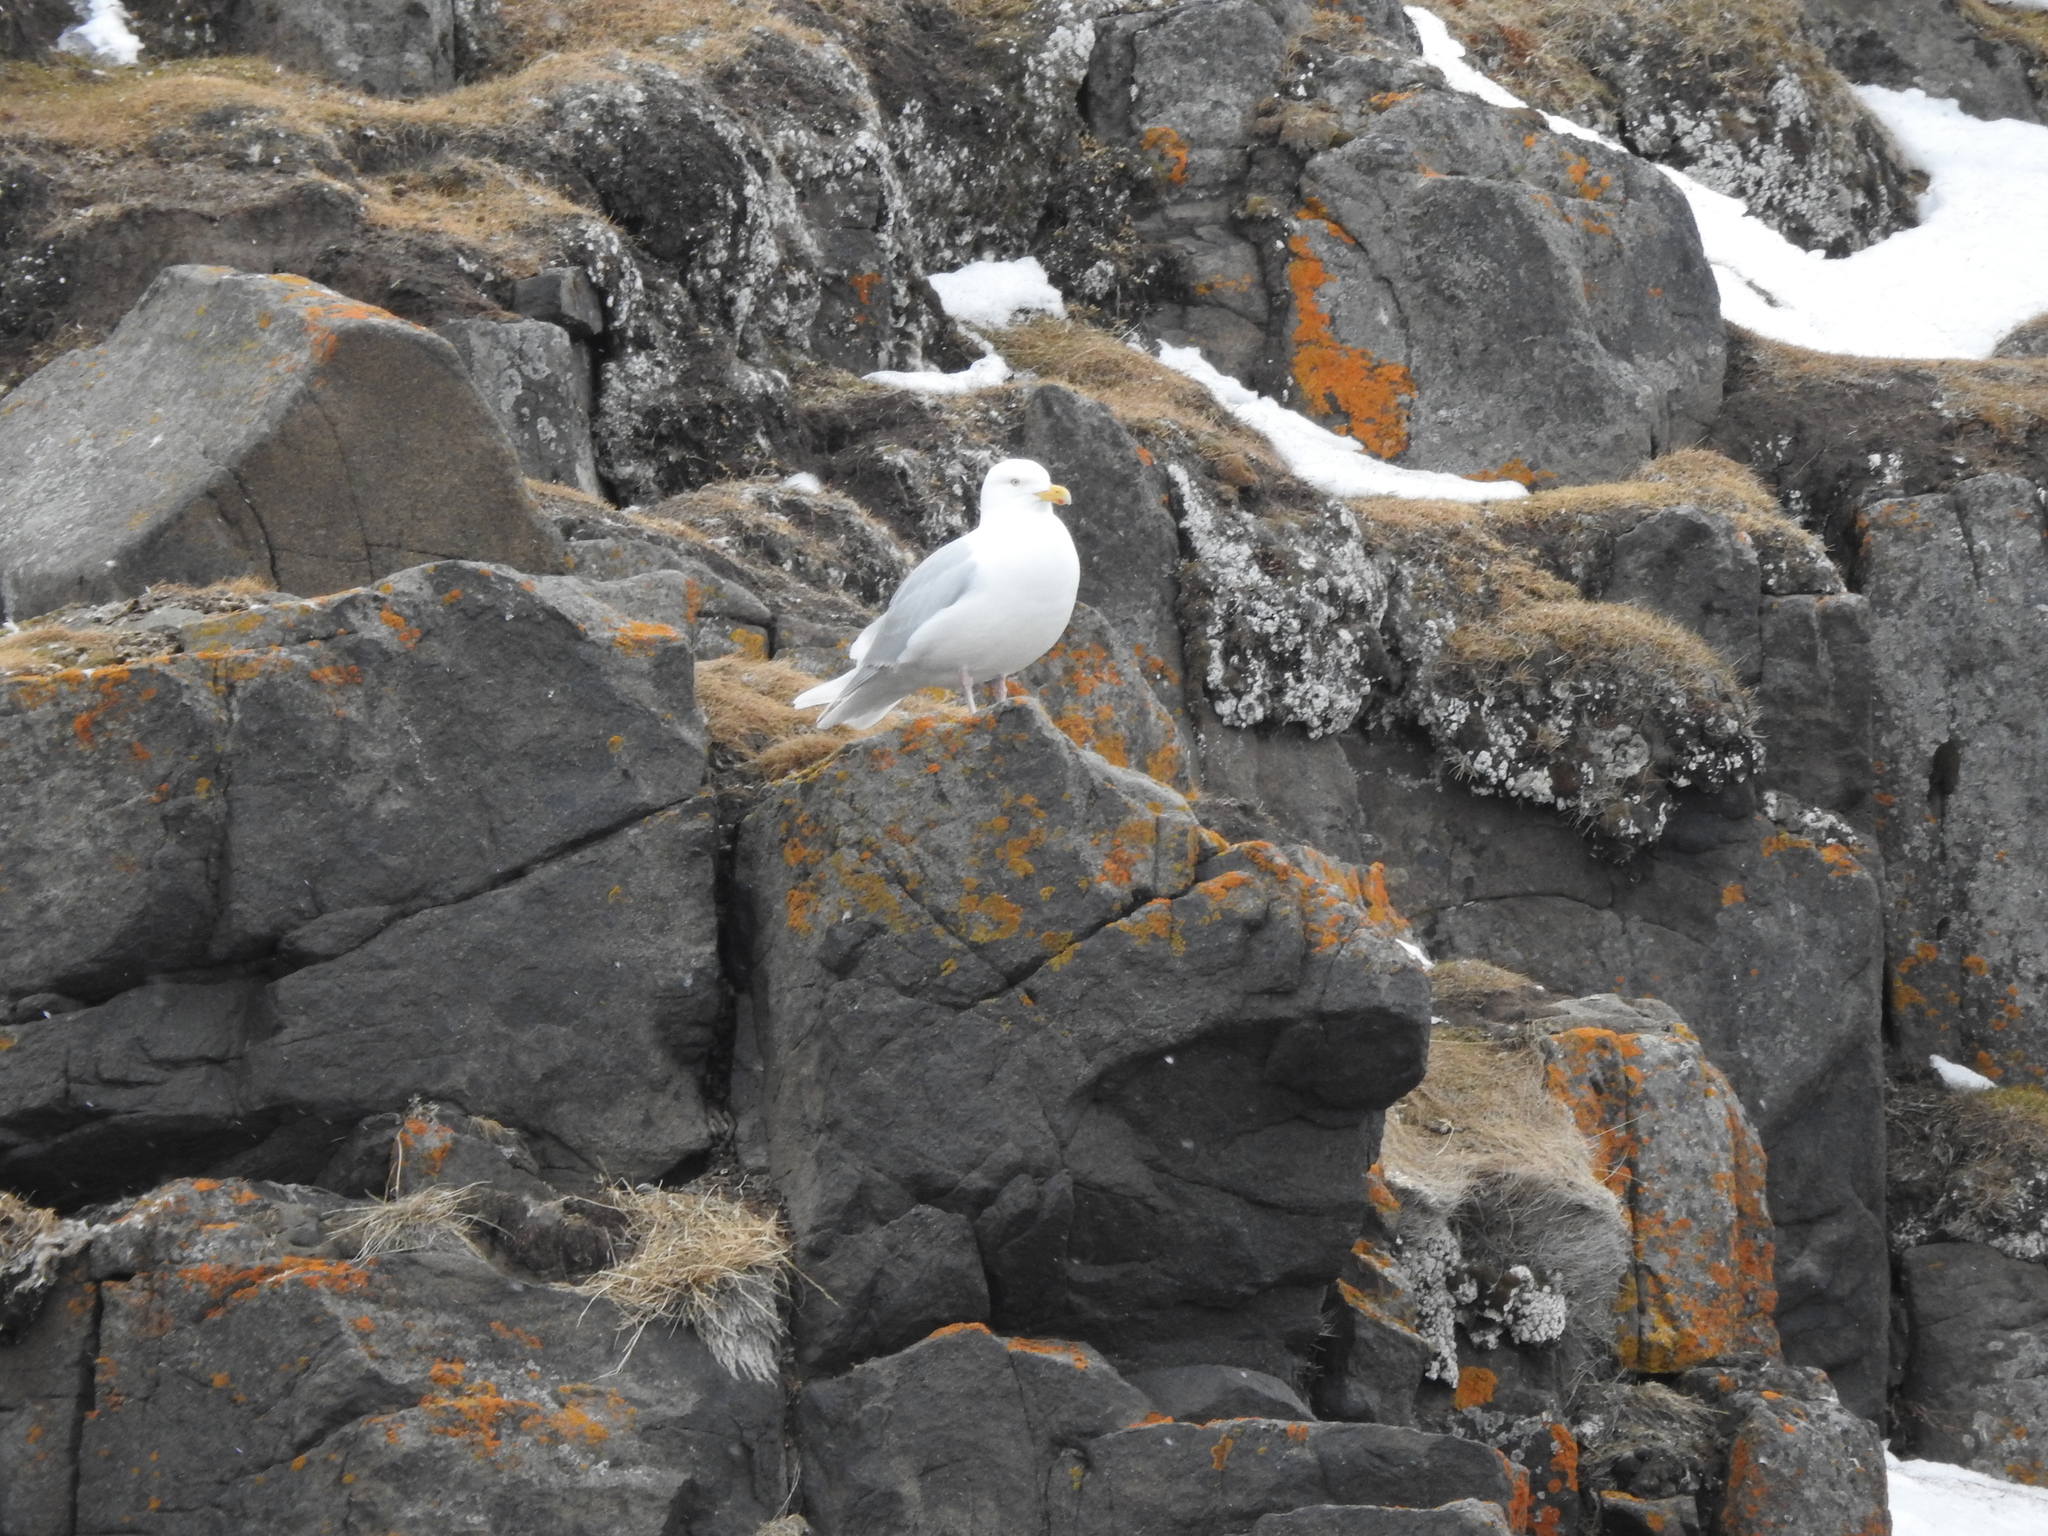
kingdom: Animalia
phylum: Chordata
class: Aves
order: Charadriiformes
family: Laridae
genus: Larus
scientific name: Larus hyperboreus
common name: Glaucous gull
